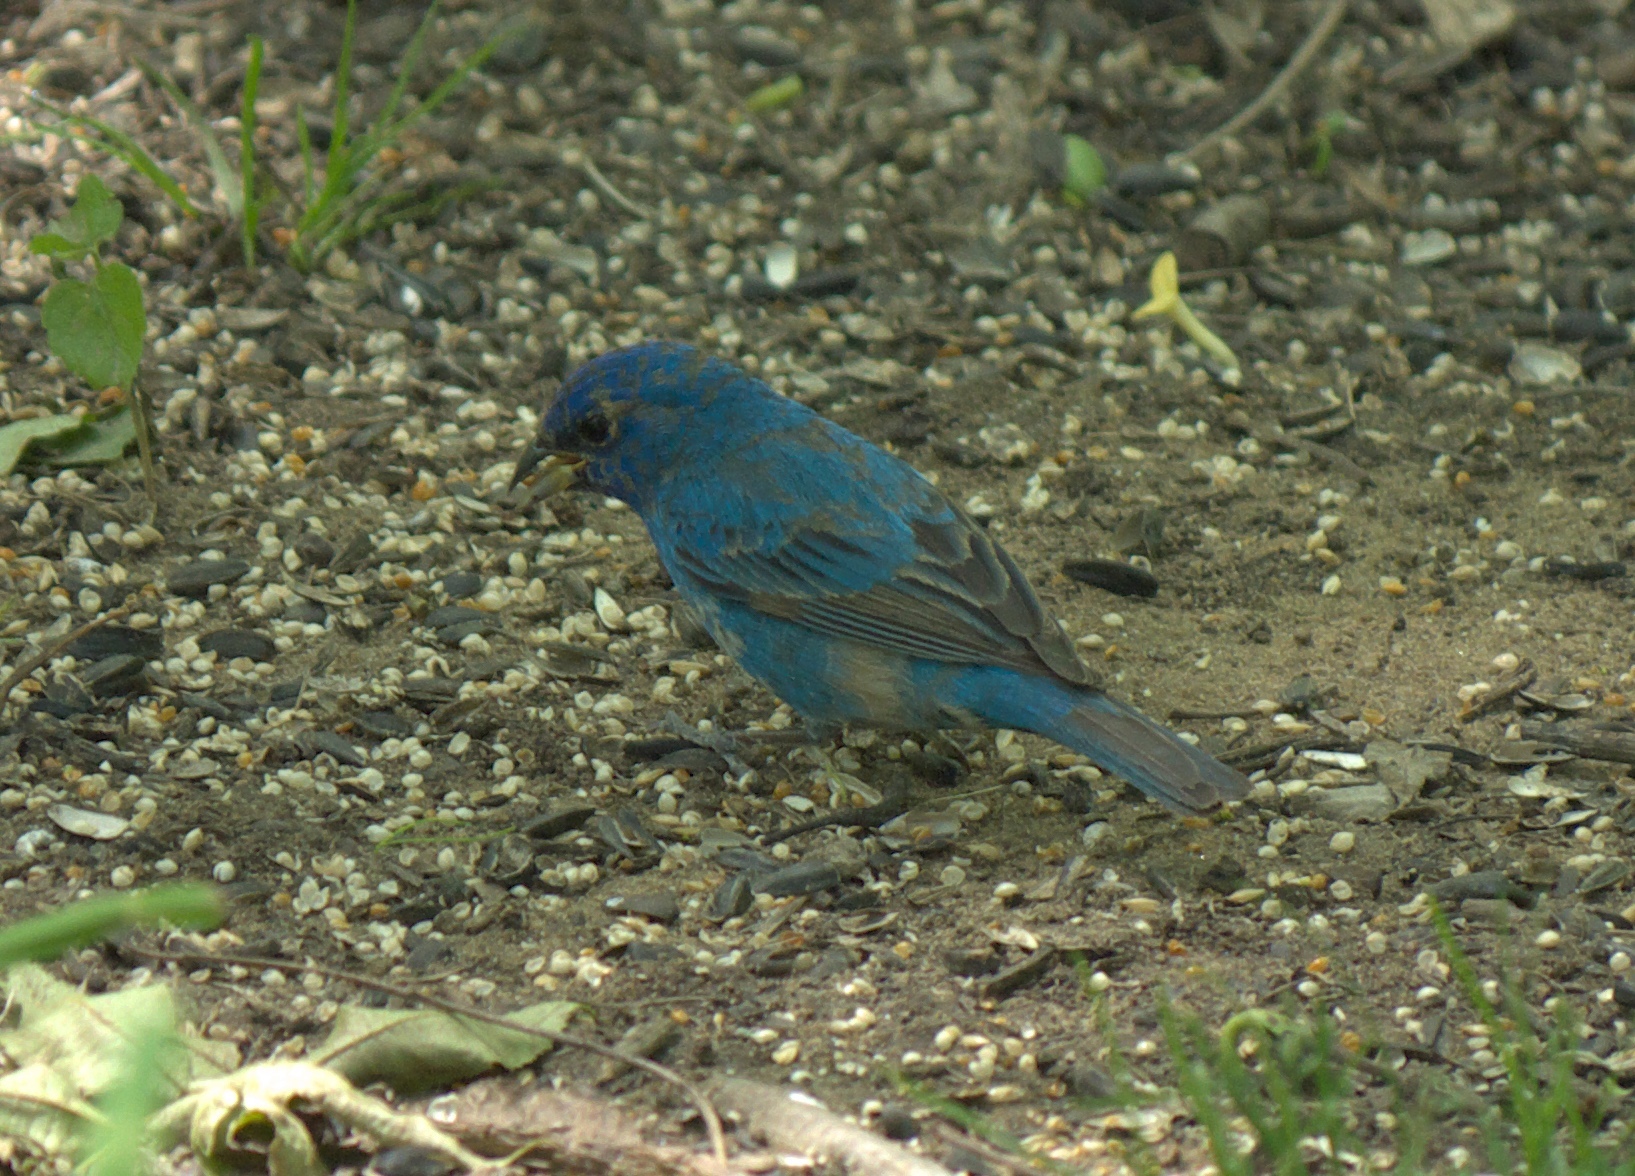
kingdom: Animalia
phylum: Chordata
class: Aves
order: Passeriformes
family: Cardinalidae
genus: Passerina
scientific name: Passerina cyanea
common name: Indigo bunting
